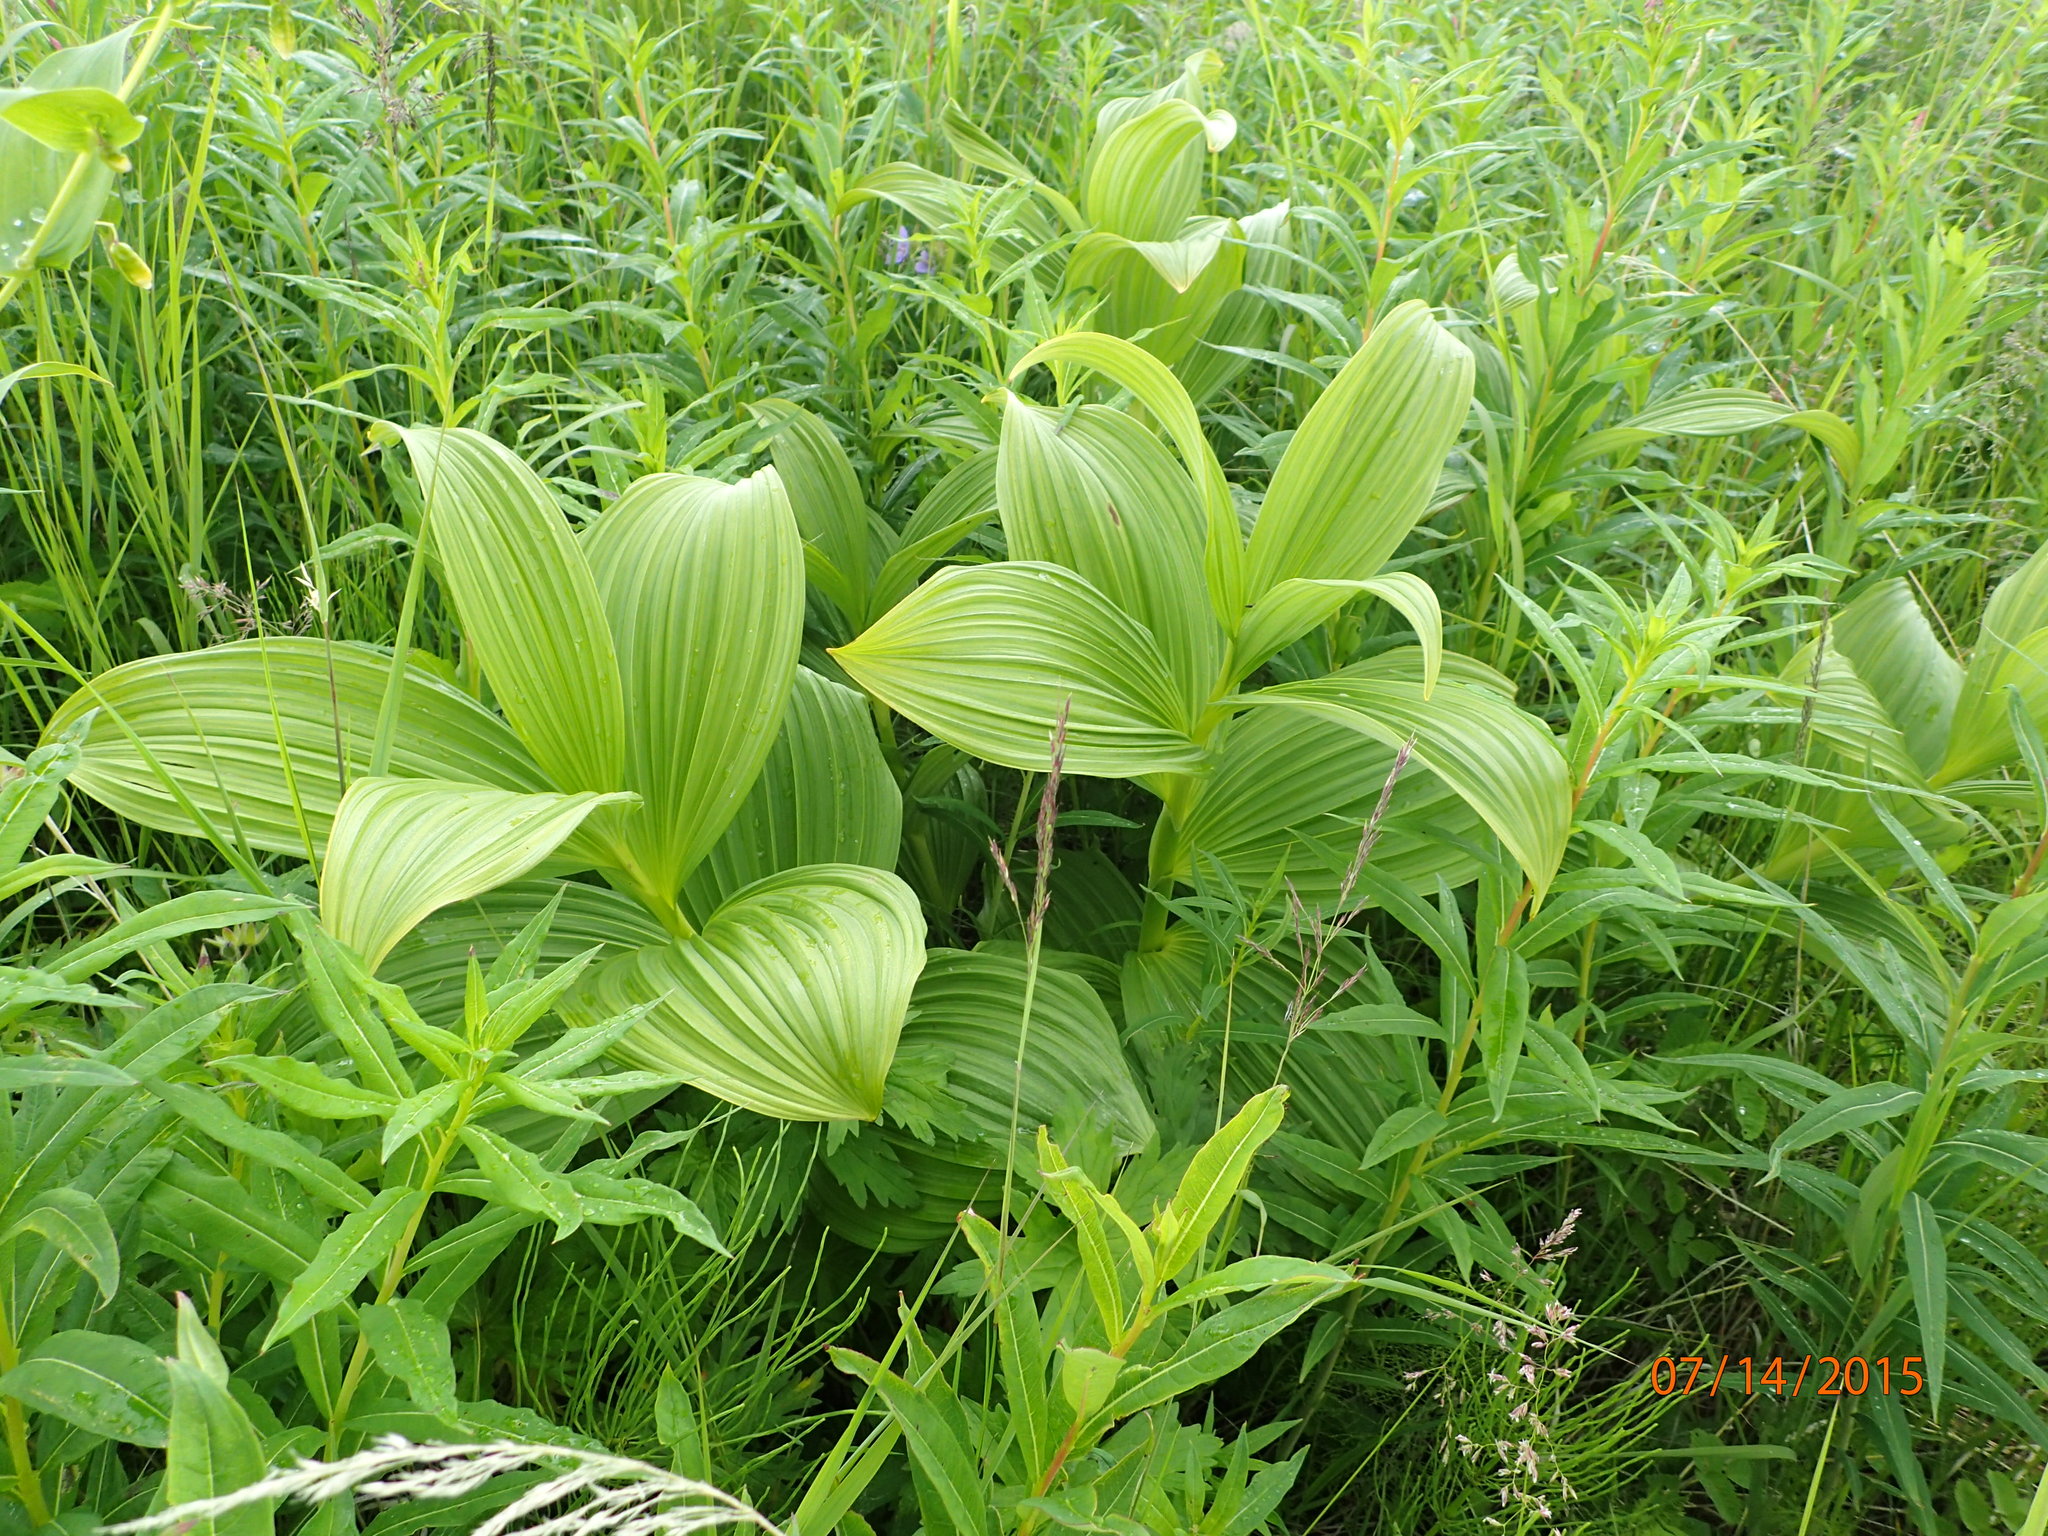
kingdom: Plantae
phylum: Tracheophyta
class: Liliopsida
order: Liliales
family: Melanthiaceae
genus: Veratrum
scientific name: Veratrum viride
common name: American false hellebore
